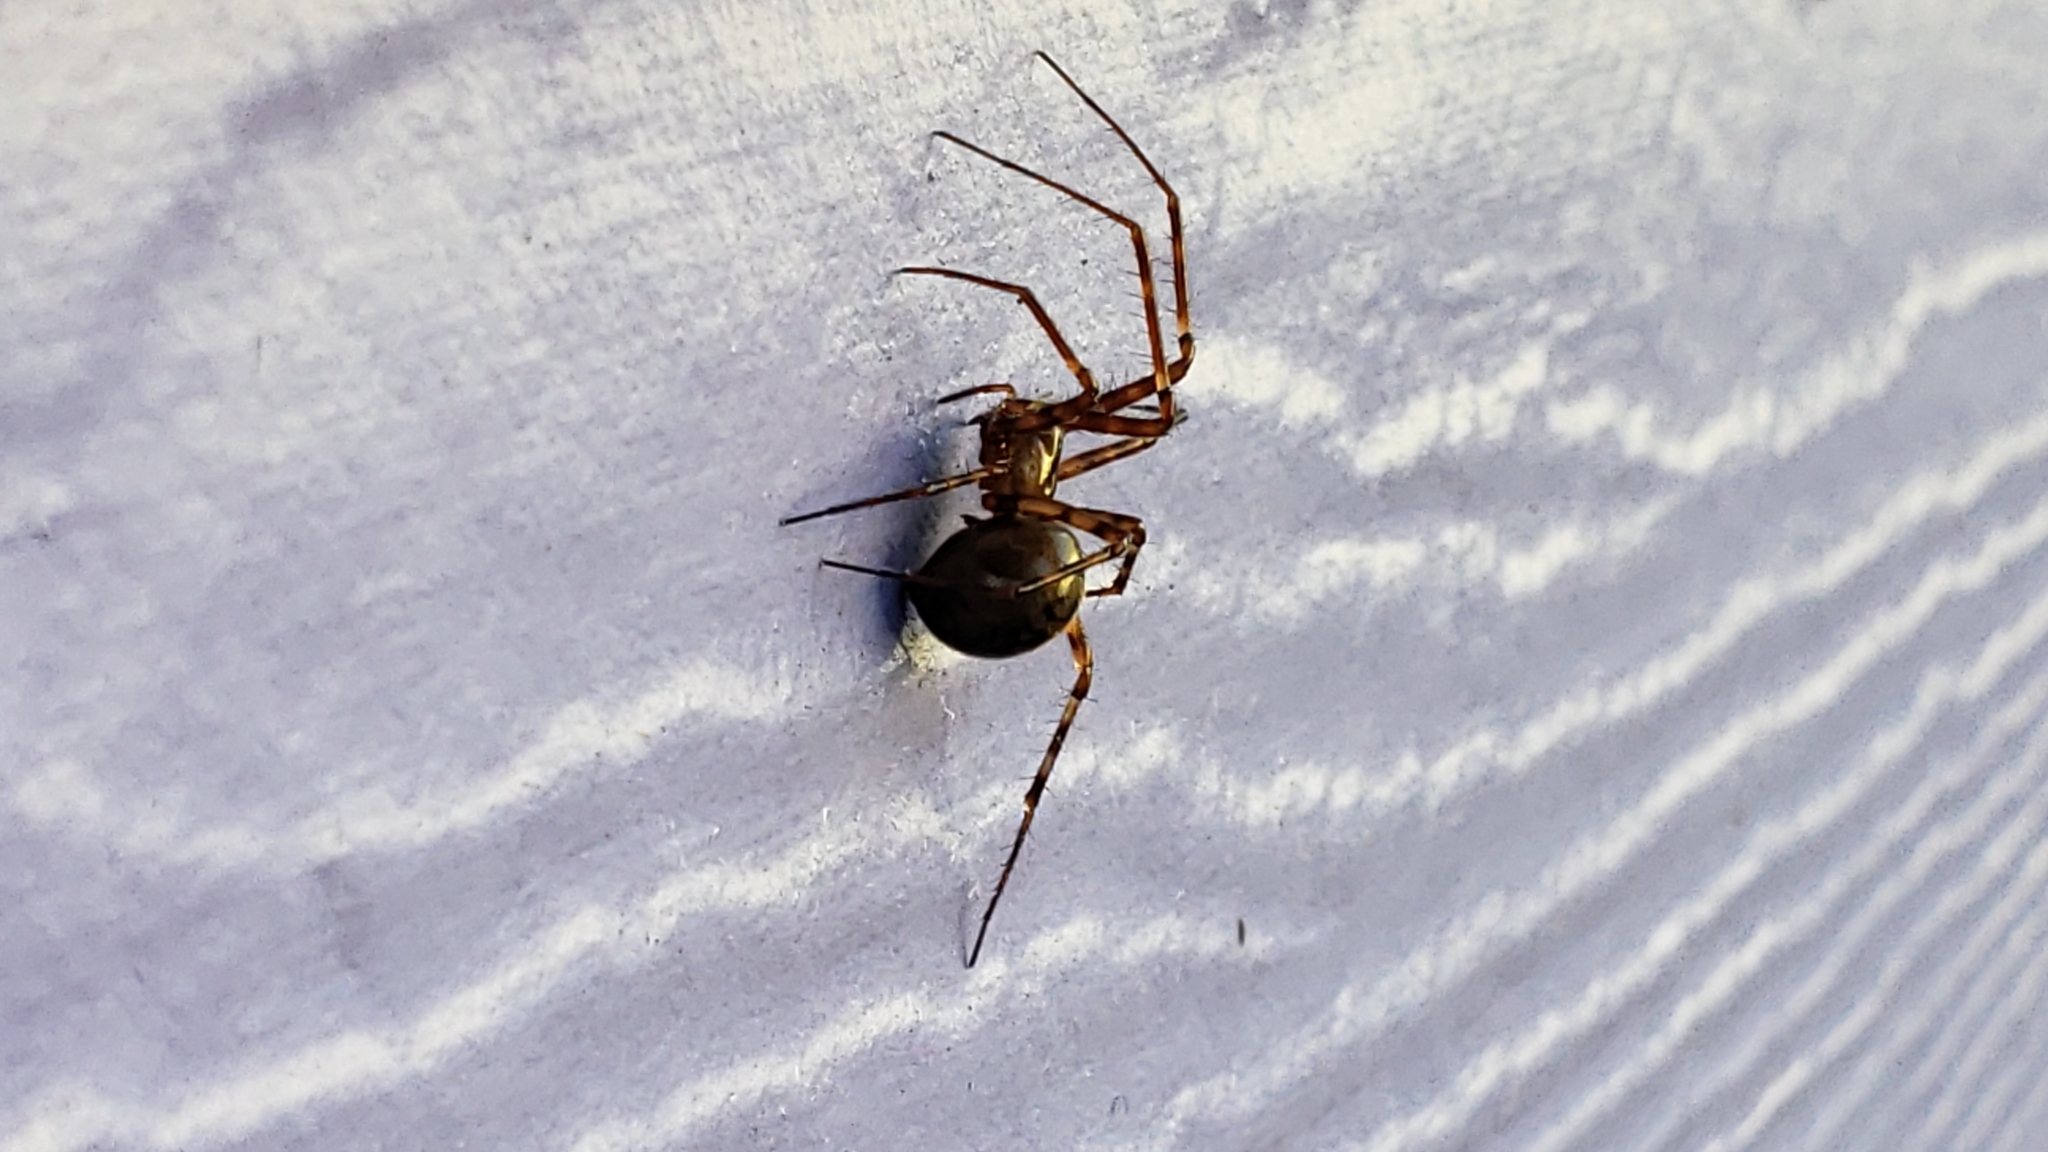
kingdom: Animalia
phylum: Arthropoda
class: Arachnida
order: Araneae
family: Pimoidae
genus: Pimoa
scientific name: Pimoa altioculata
